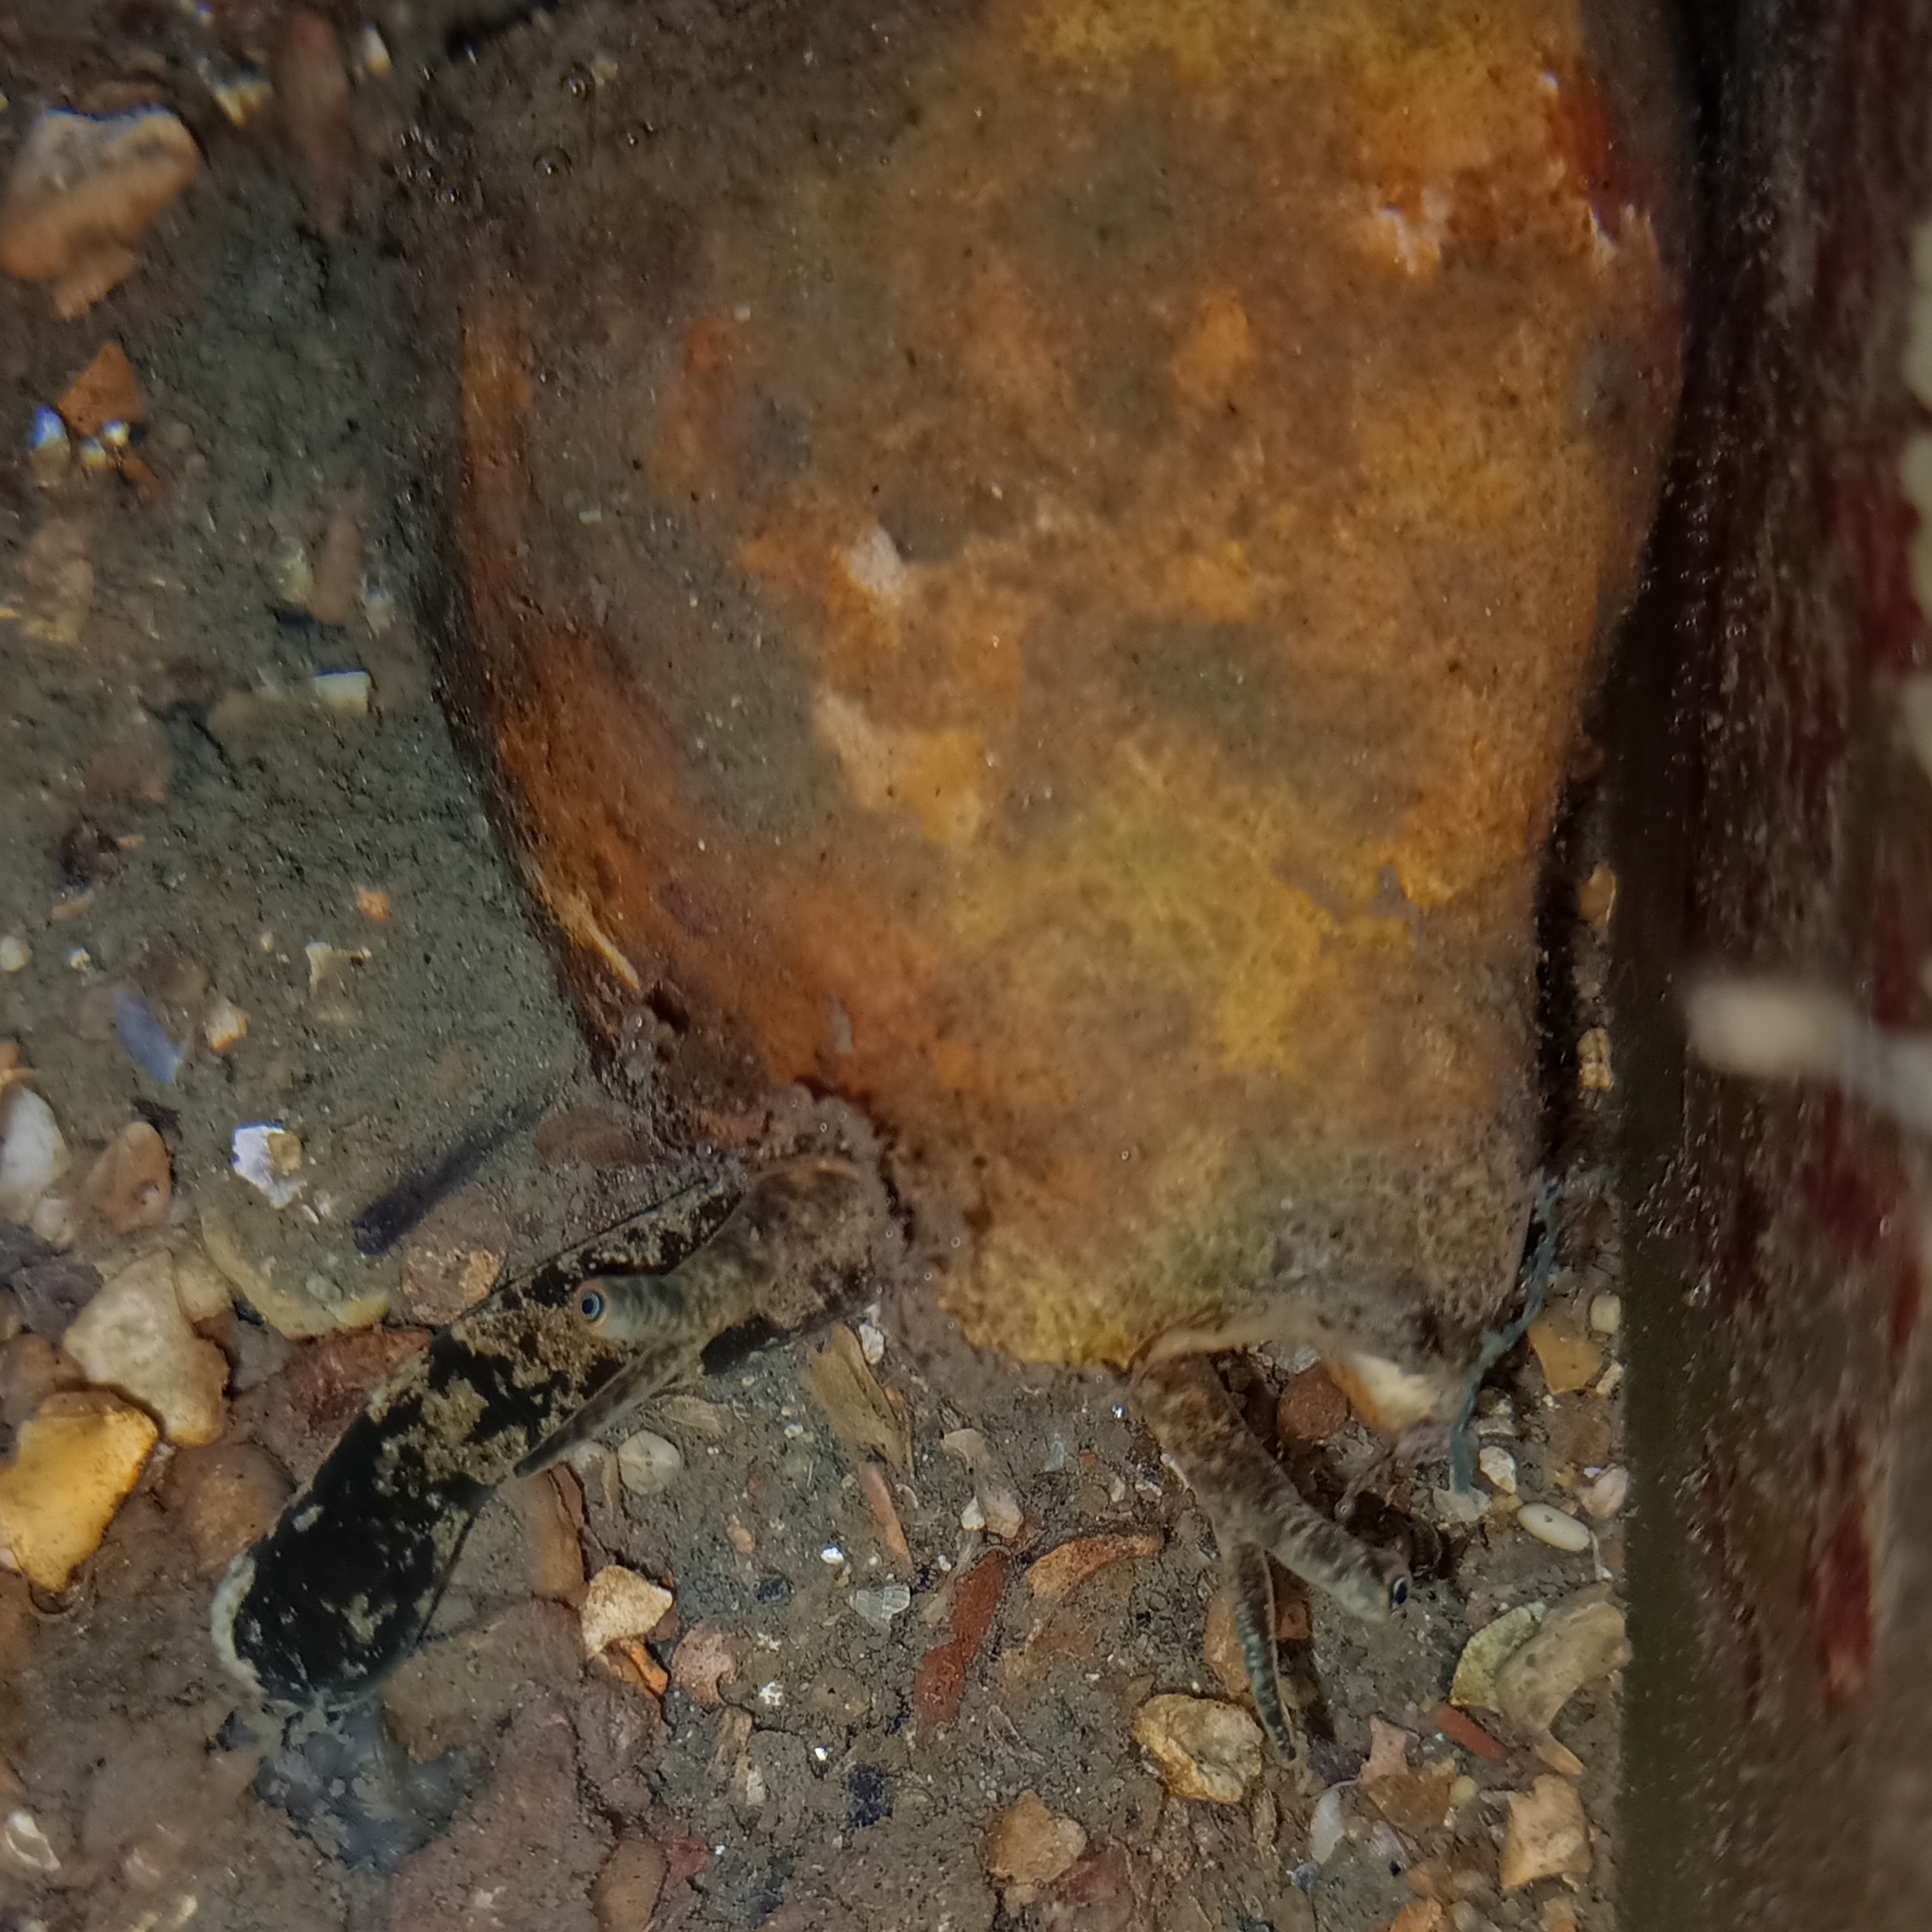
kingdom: Animalia
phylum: Mollusca
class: Gastropoda
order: Littorinimorpha
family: Strombidae
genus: Strombus
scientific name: Strombus pugilis
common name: West indian fighting conch
